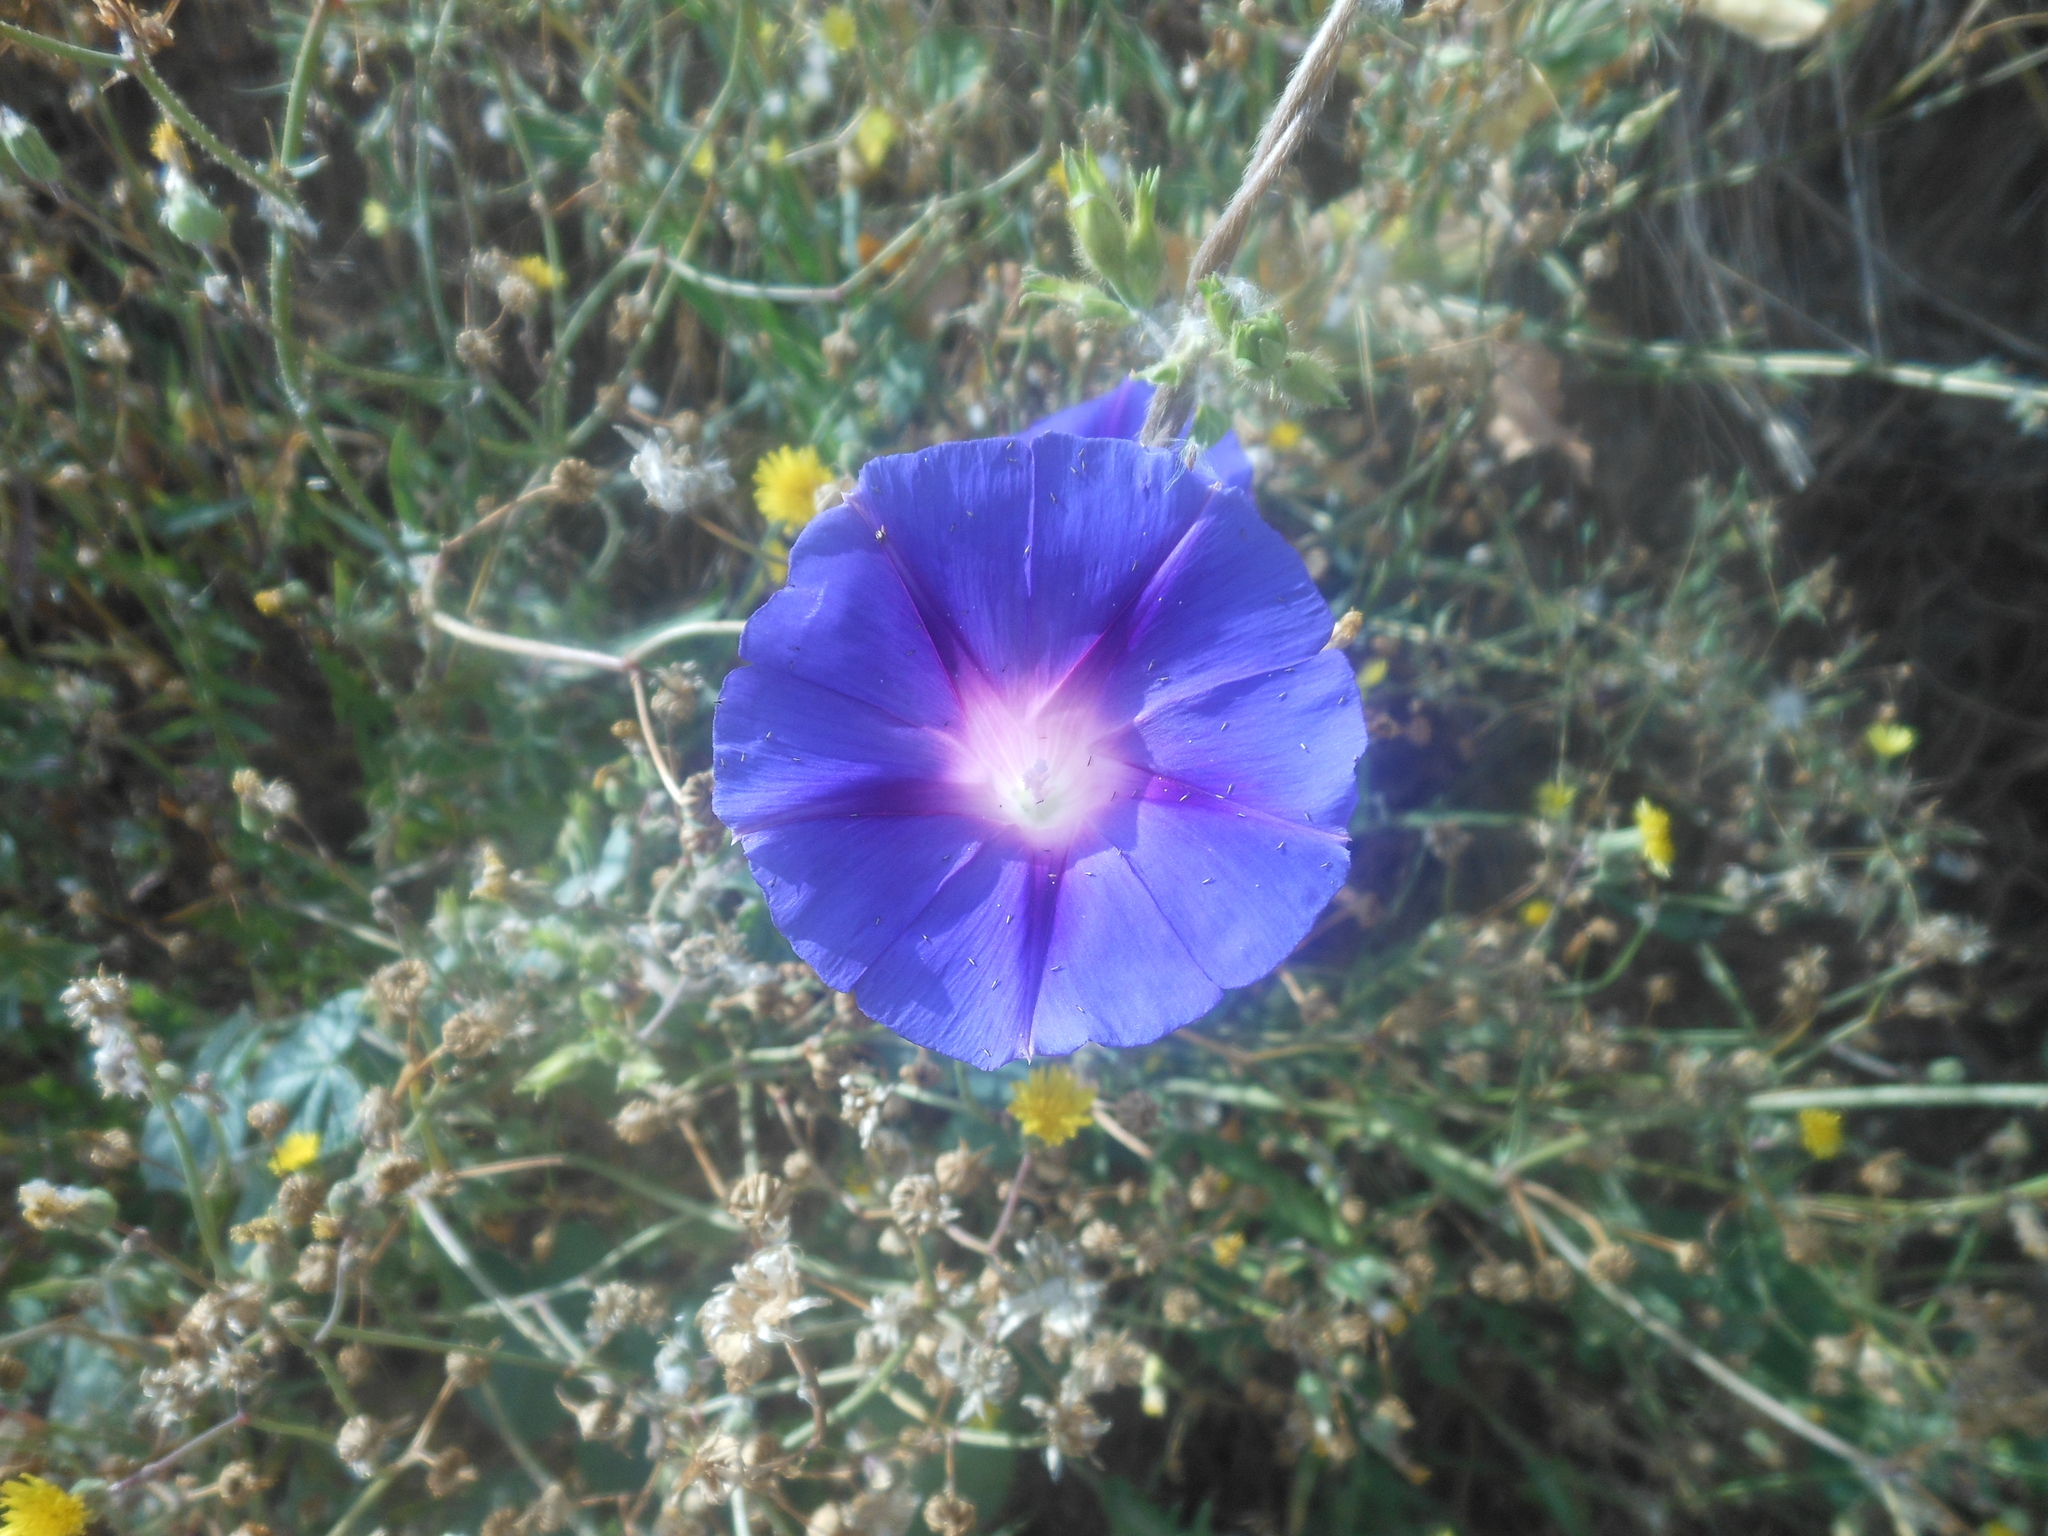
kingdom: Plantae
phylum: Tracheophyta
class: Magnoliopsida
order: Solanales
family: Convolvulaceae
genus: Ipomoea
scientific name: Ipomoea purpurea
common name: Common morning-glory
